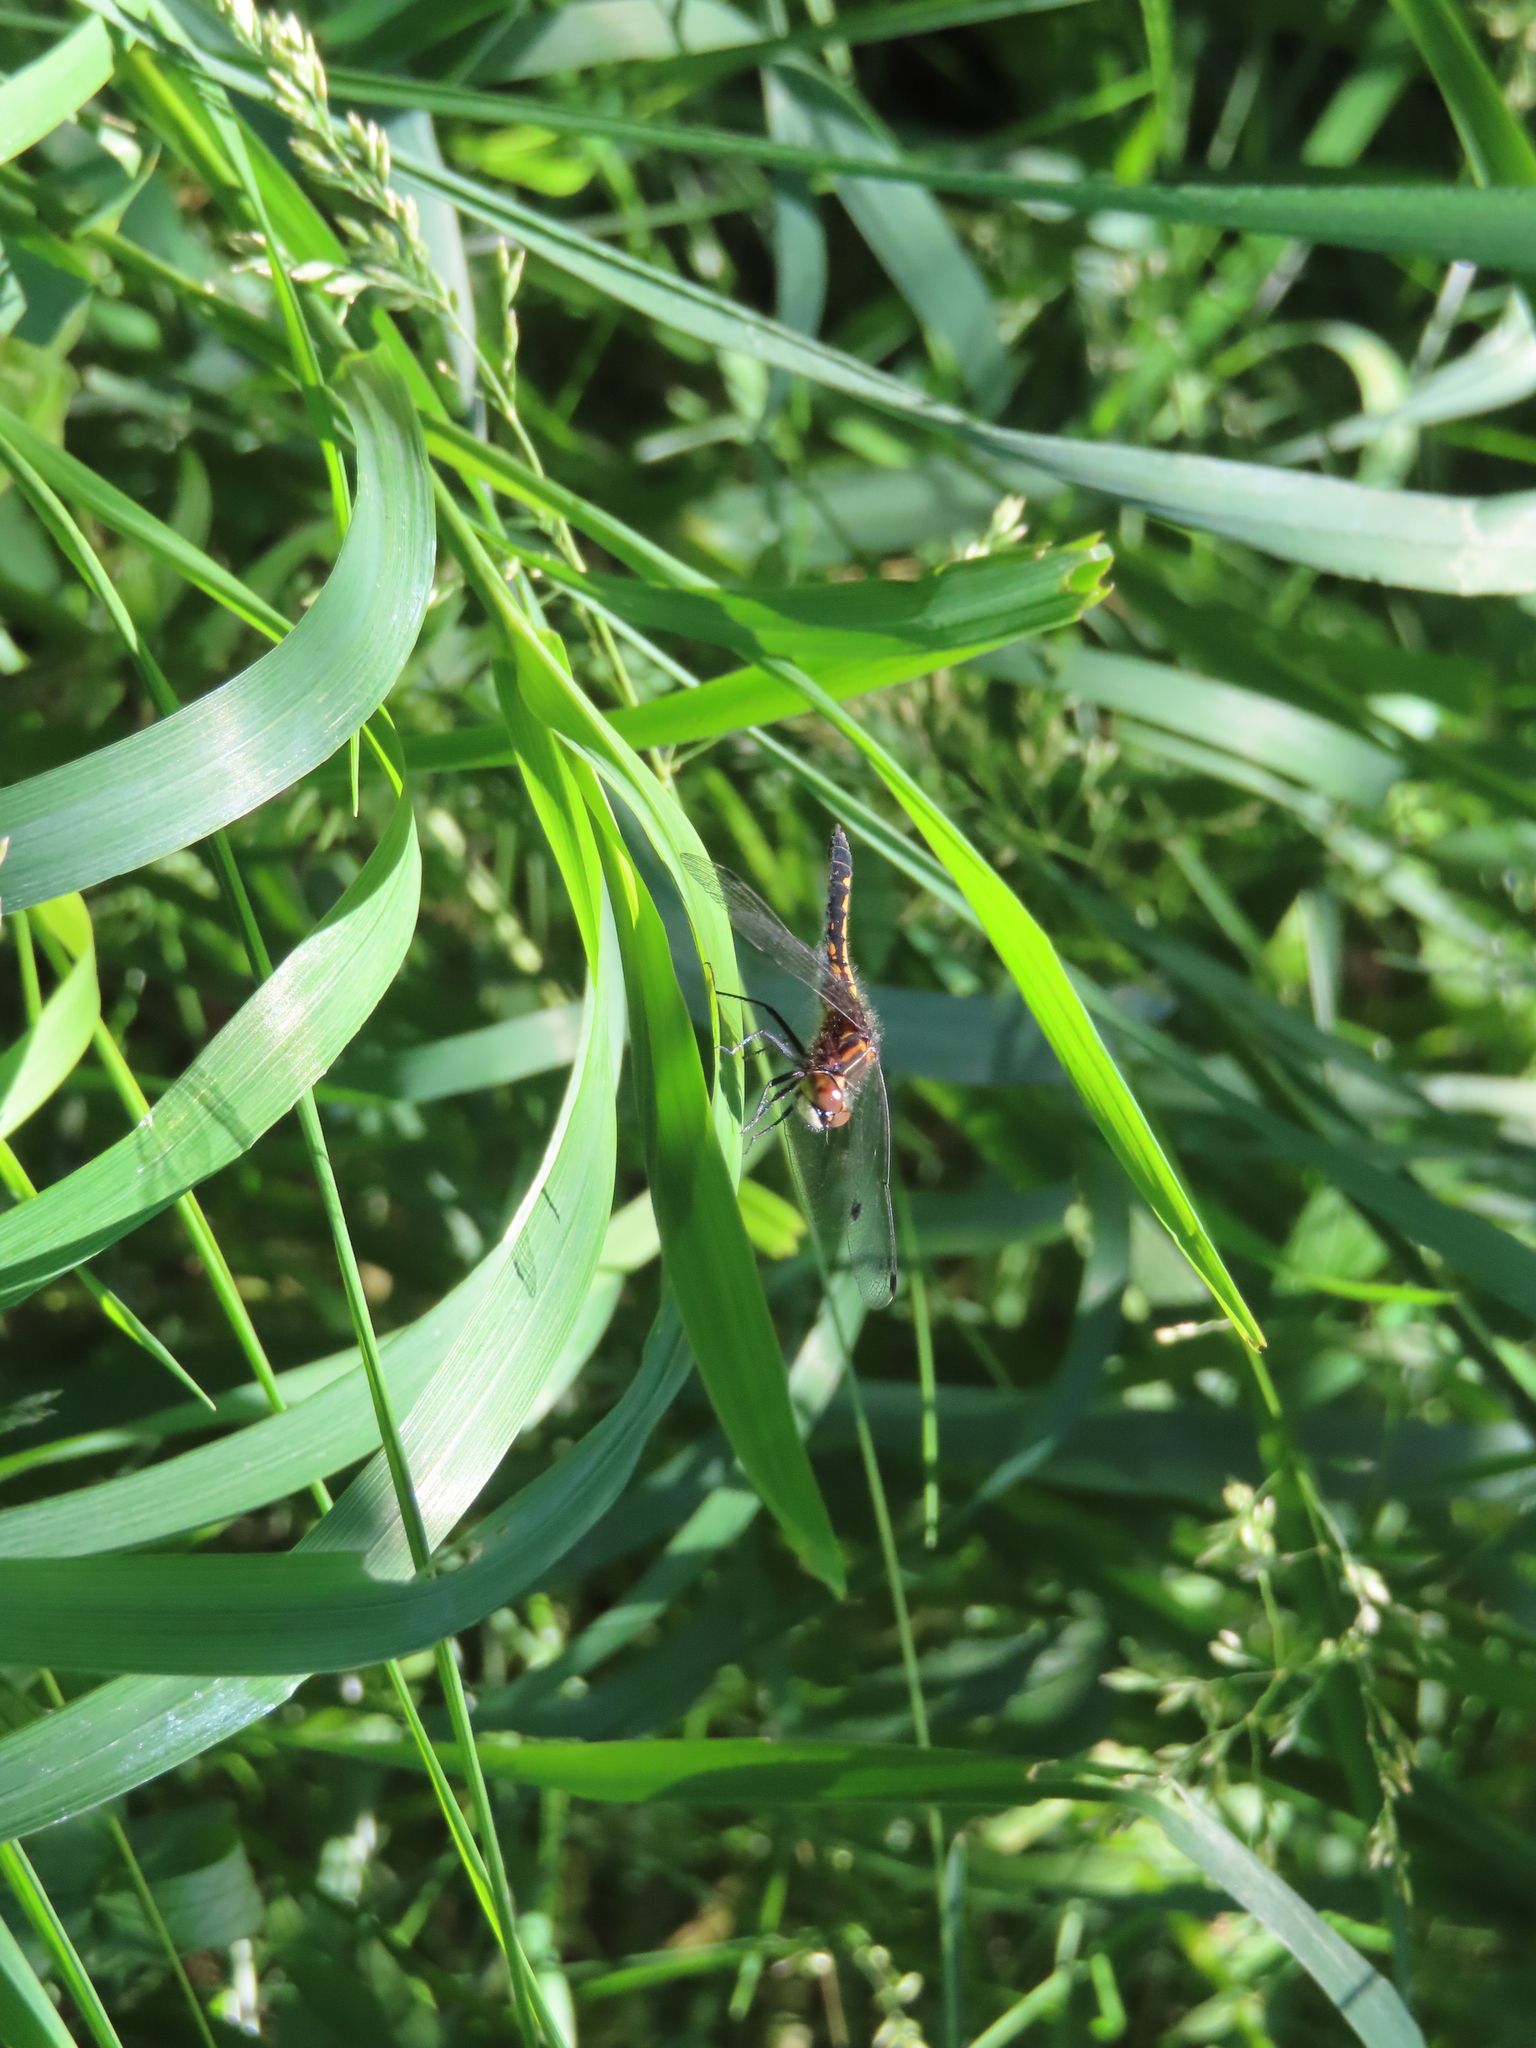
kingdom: Animalia
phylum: Arthropoda
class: Insecta
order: Odonata
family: Libellulidae
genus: Leucorrhinia
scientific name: Leucorrhinia intacta
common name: Dot-tailed whiteface
